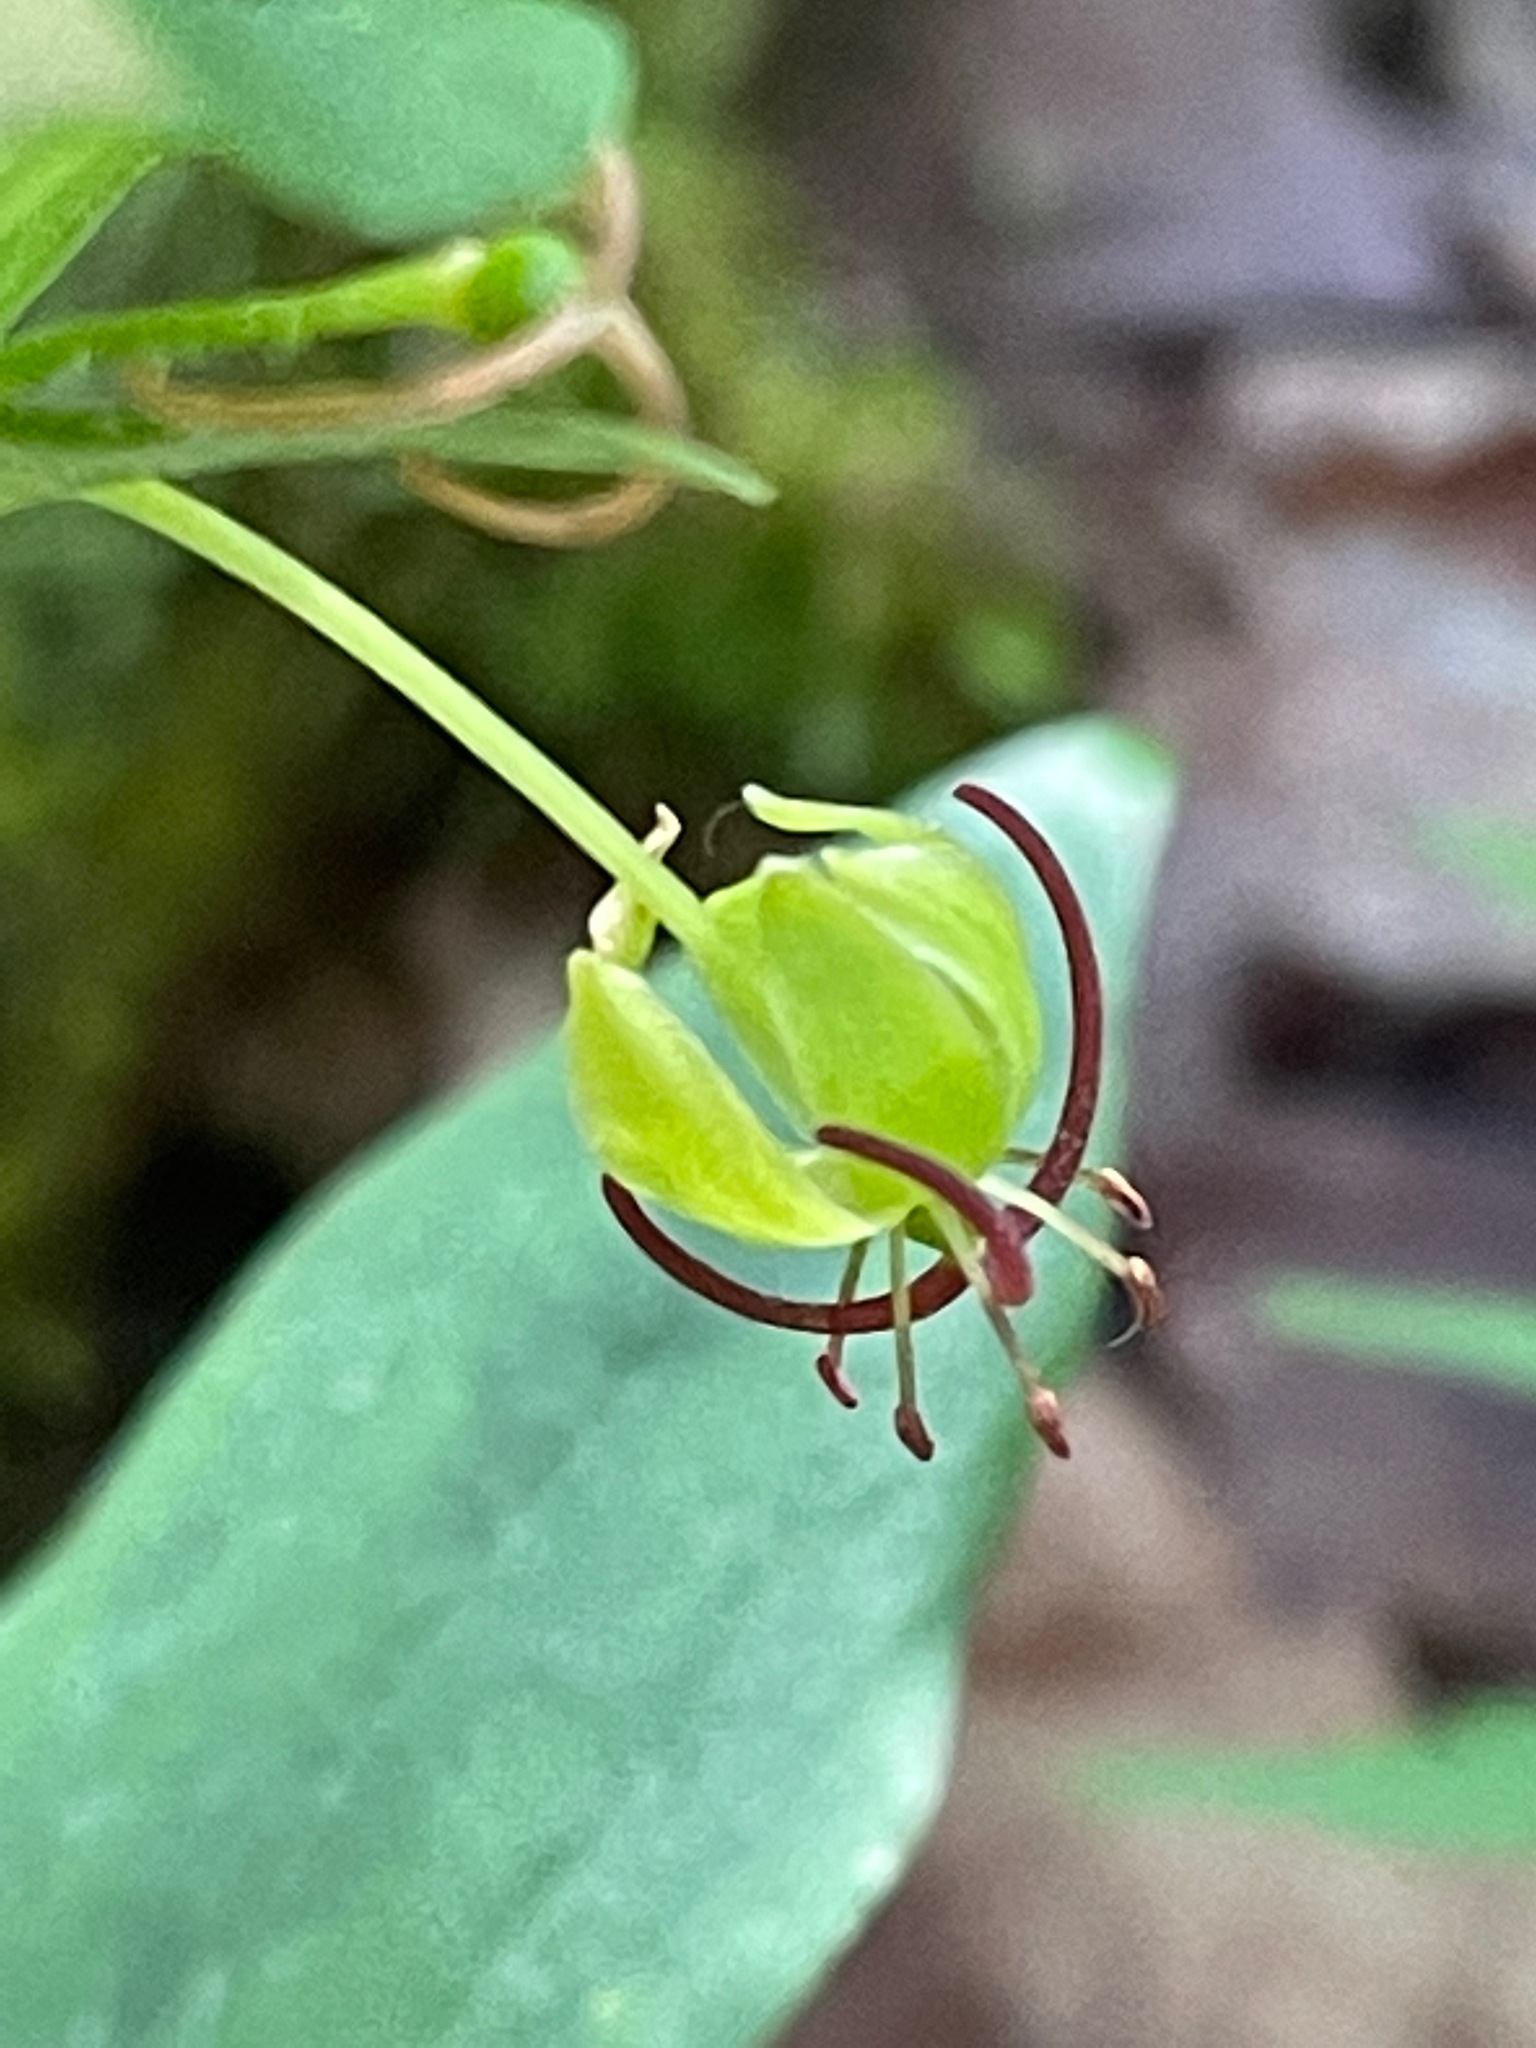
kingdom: Plantae
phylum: Tracheophyta
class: Liliopsida
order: Liliales
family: Liliaceae
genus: Medeola
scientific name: Medeola virginiana
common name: Indian cucumber-root
